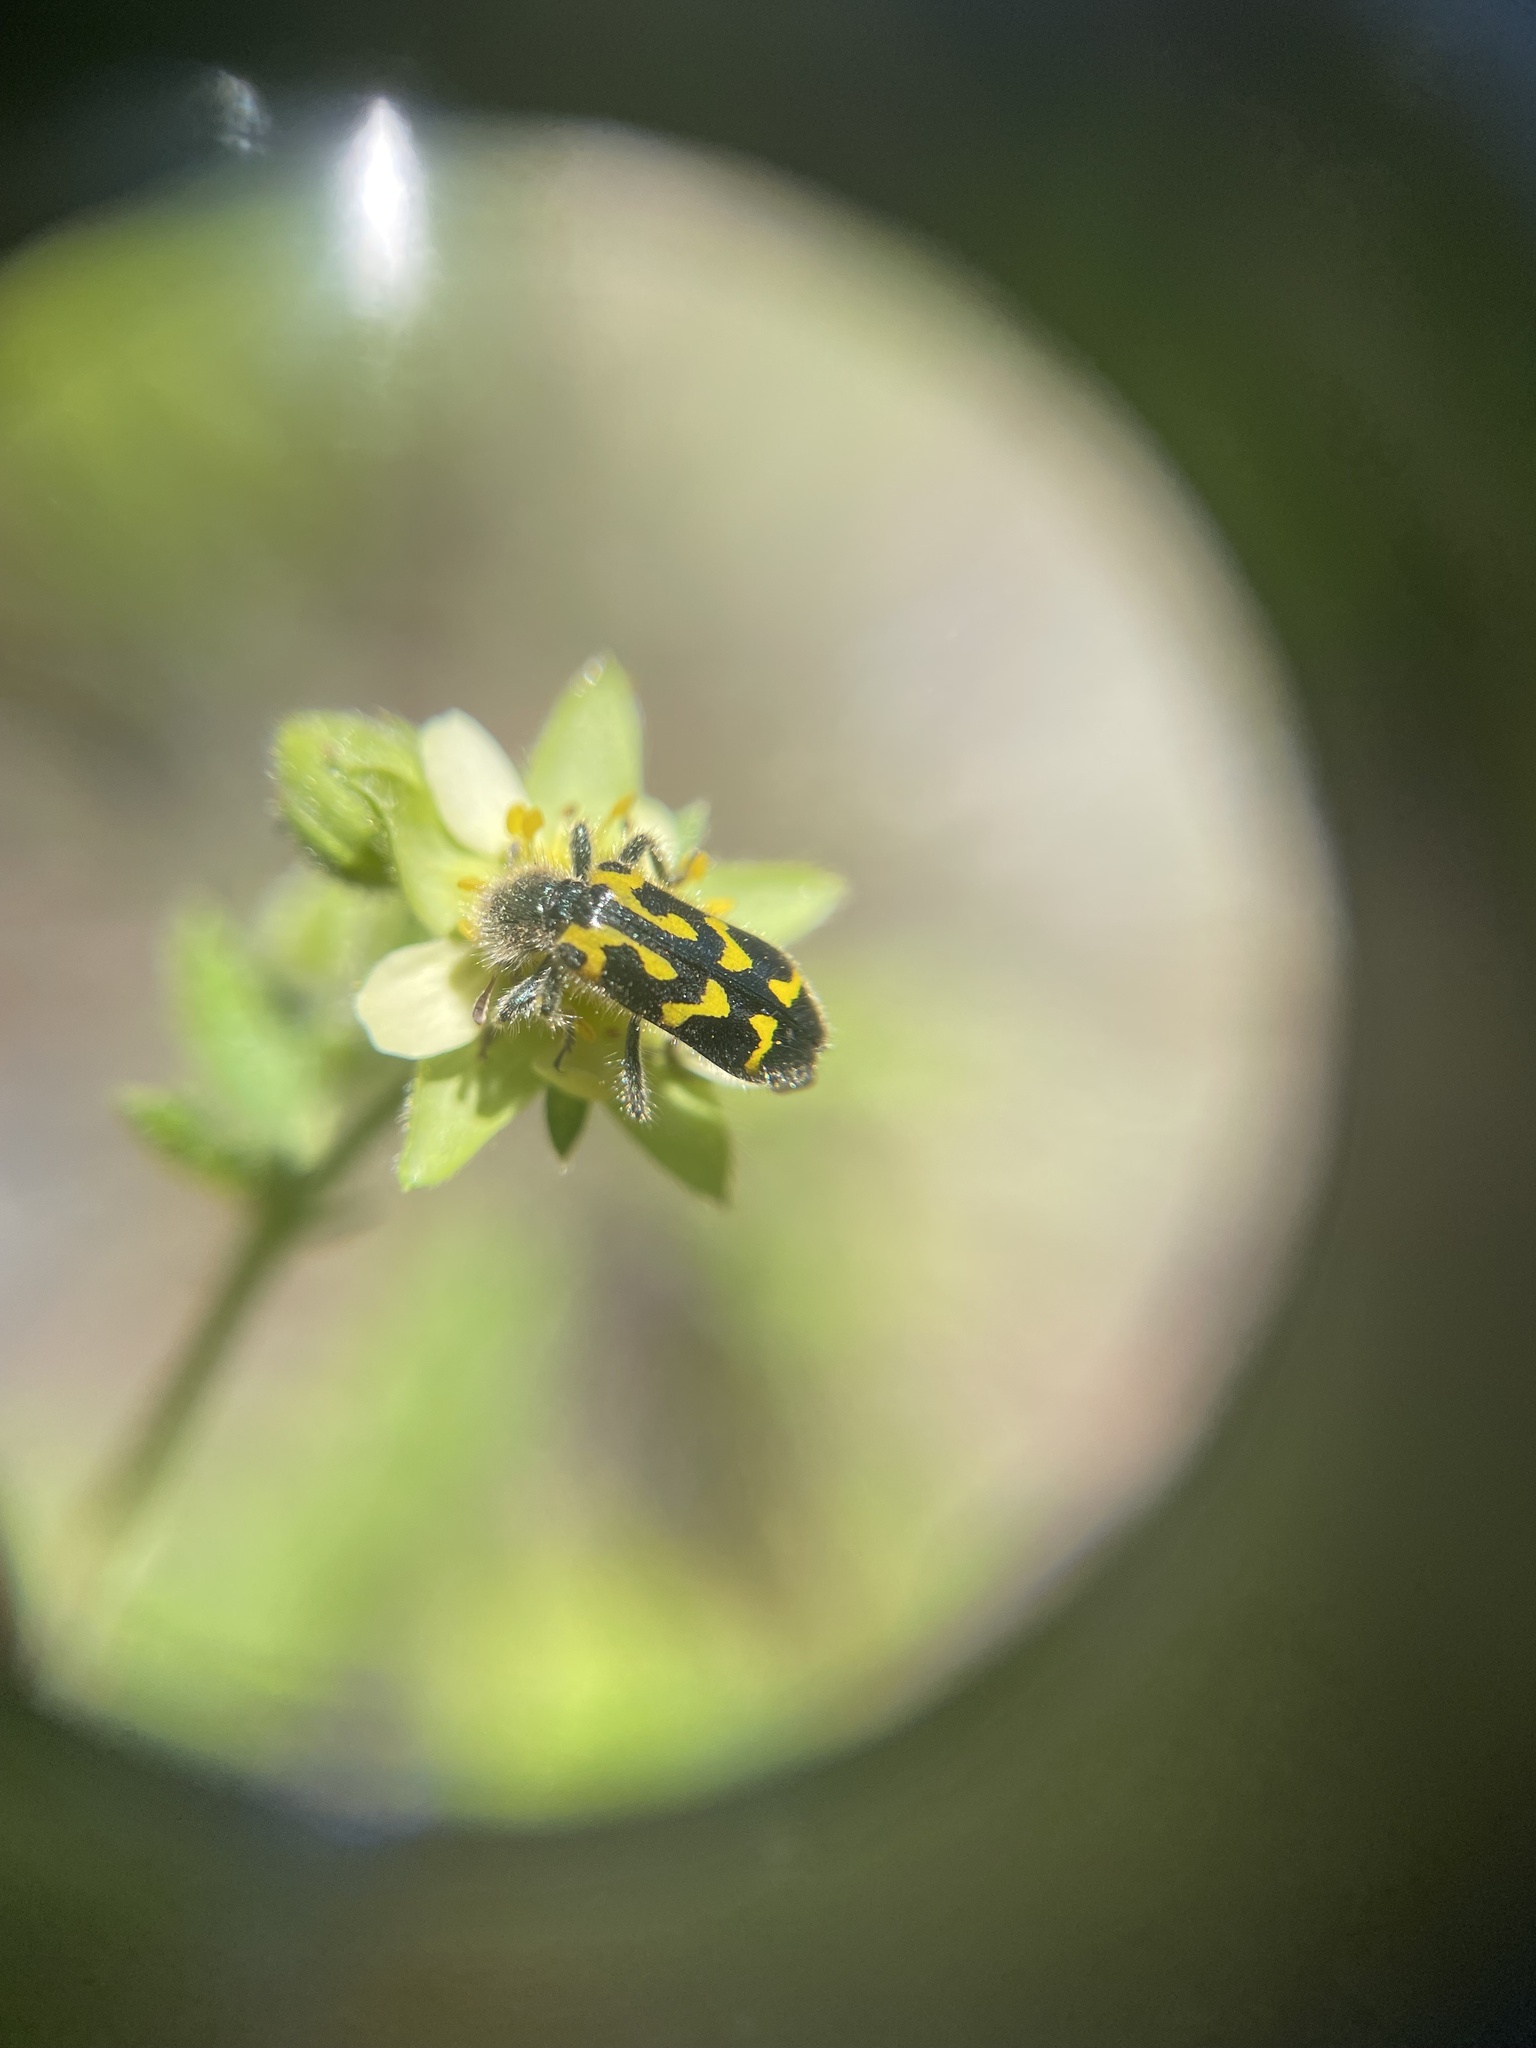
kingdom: Animalia
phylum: Arthropoda
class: Insecta
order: Coleoptera
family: Cleridae
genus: Trichodes
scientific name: Trichodes ornatus
